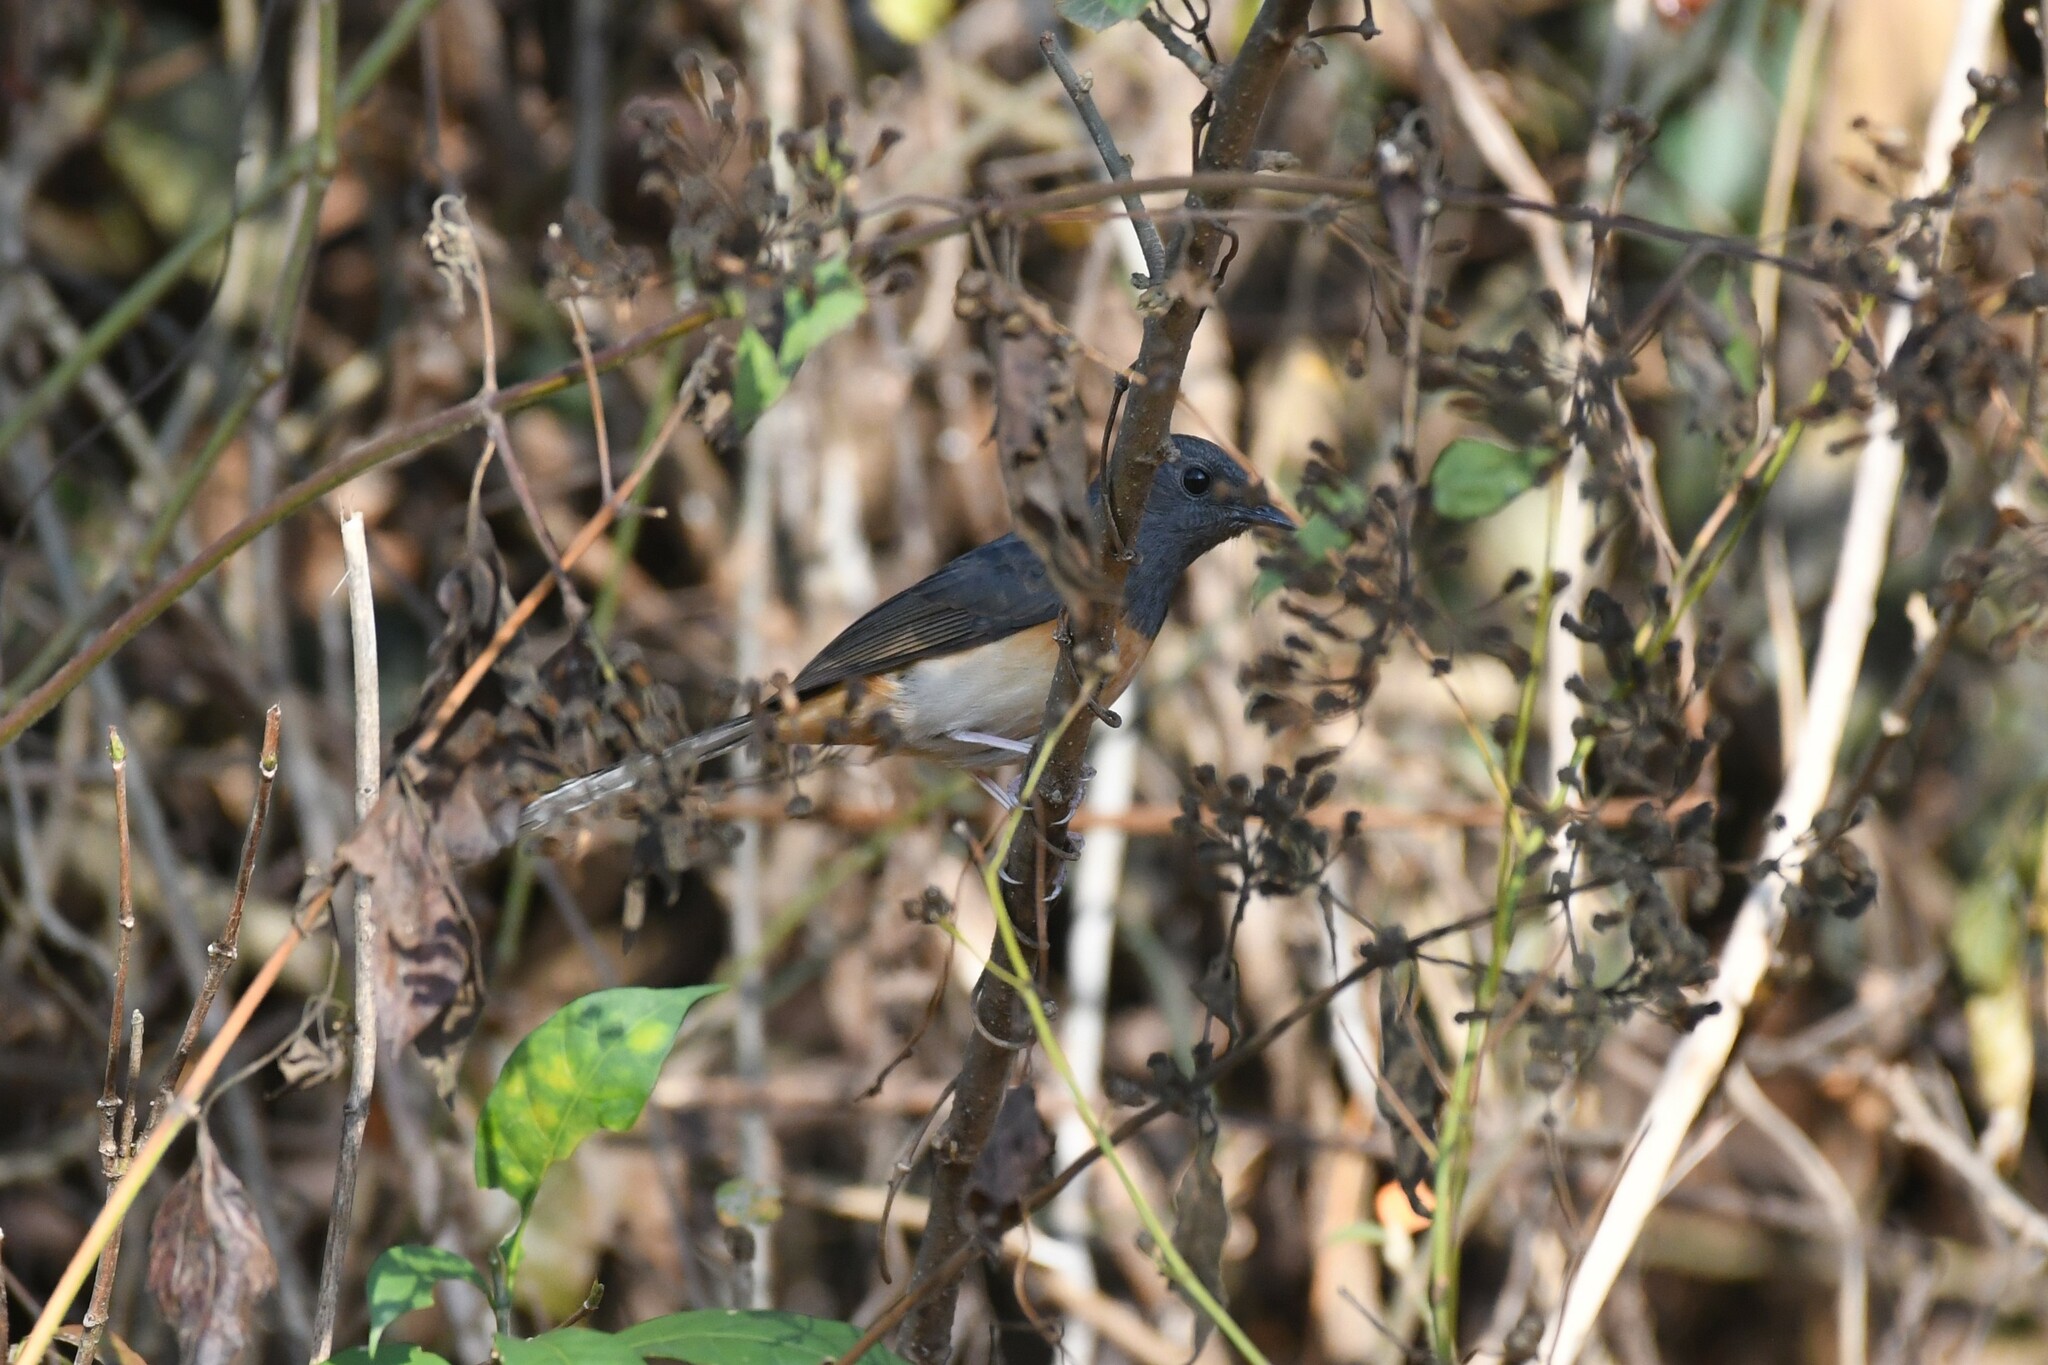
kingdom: Animalia
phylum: Chordata
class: Aves
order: Passeriformes
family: Muscicapidae
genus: Copsychus
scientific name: Copsychus malabaricus
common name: White-rumped shama
